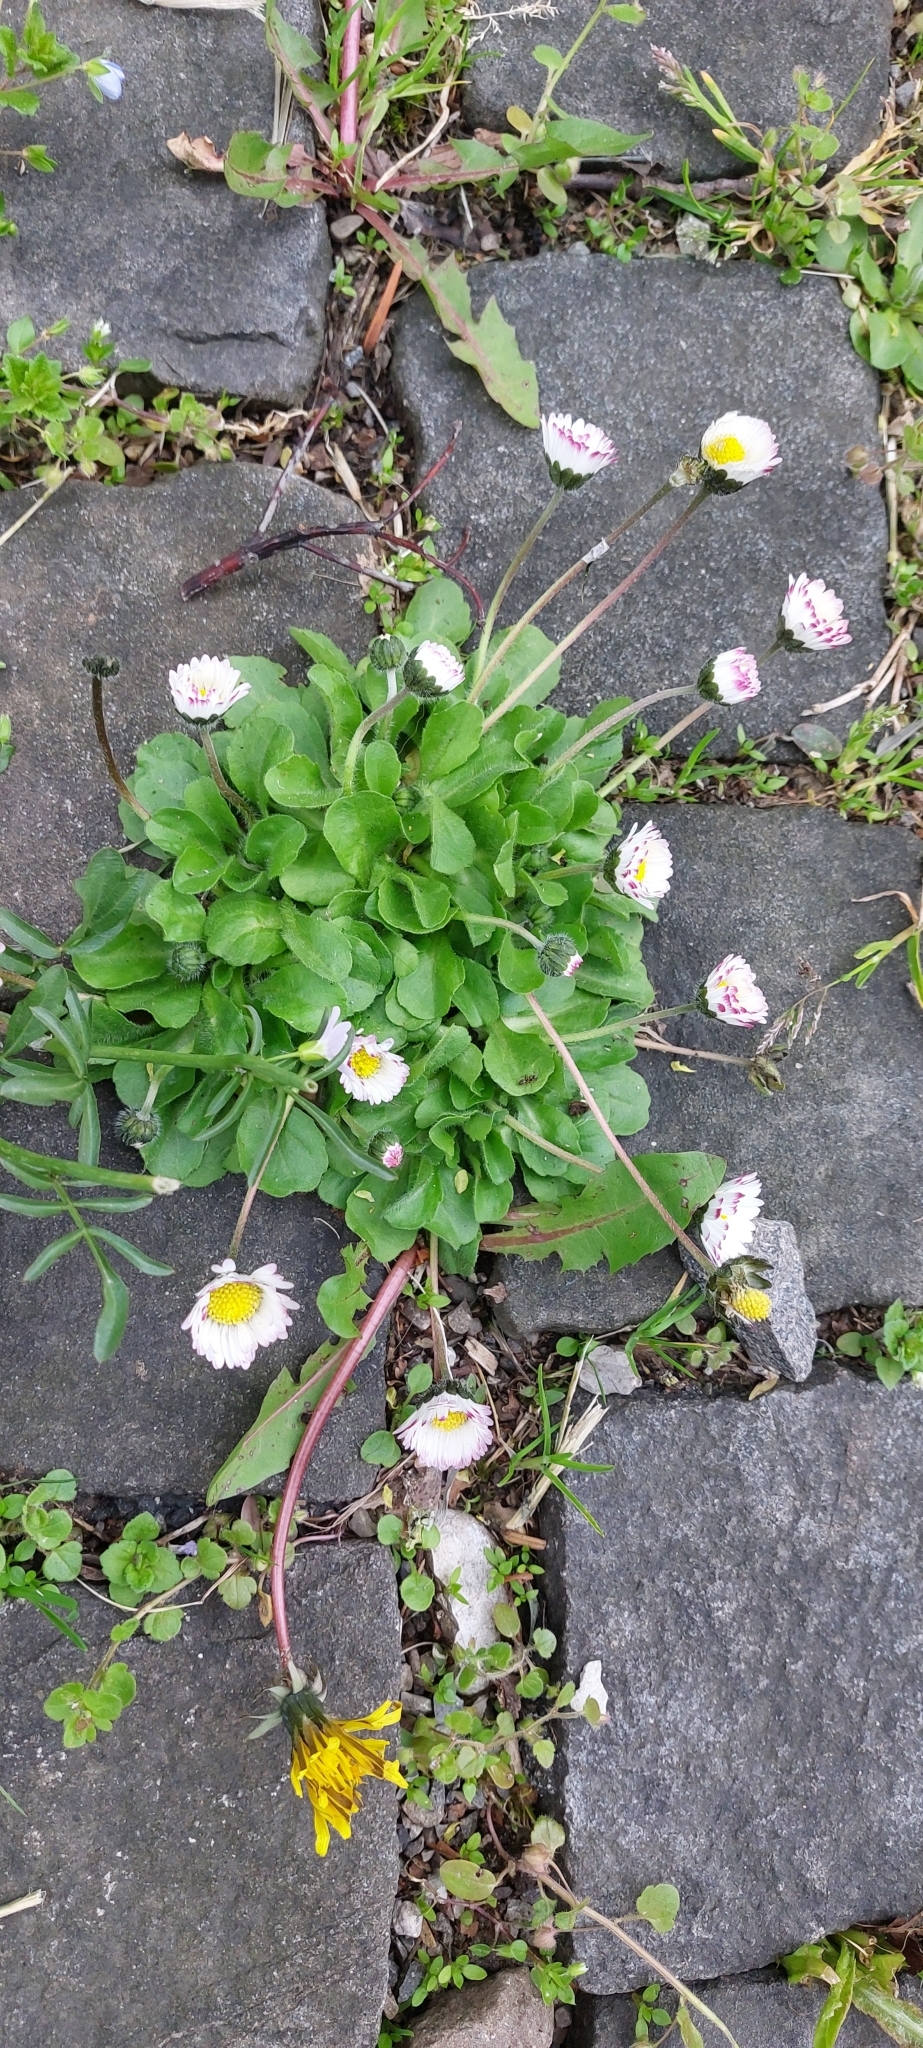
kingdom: Plantae
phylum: Tracheophyta
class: Magnoliopsida
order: Asterales
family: Asteraceae
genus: Bellis
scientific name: Bellis perennis
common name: Lawndaisy
